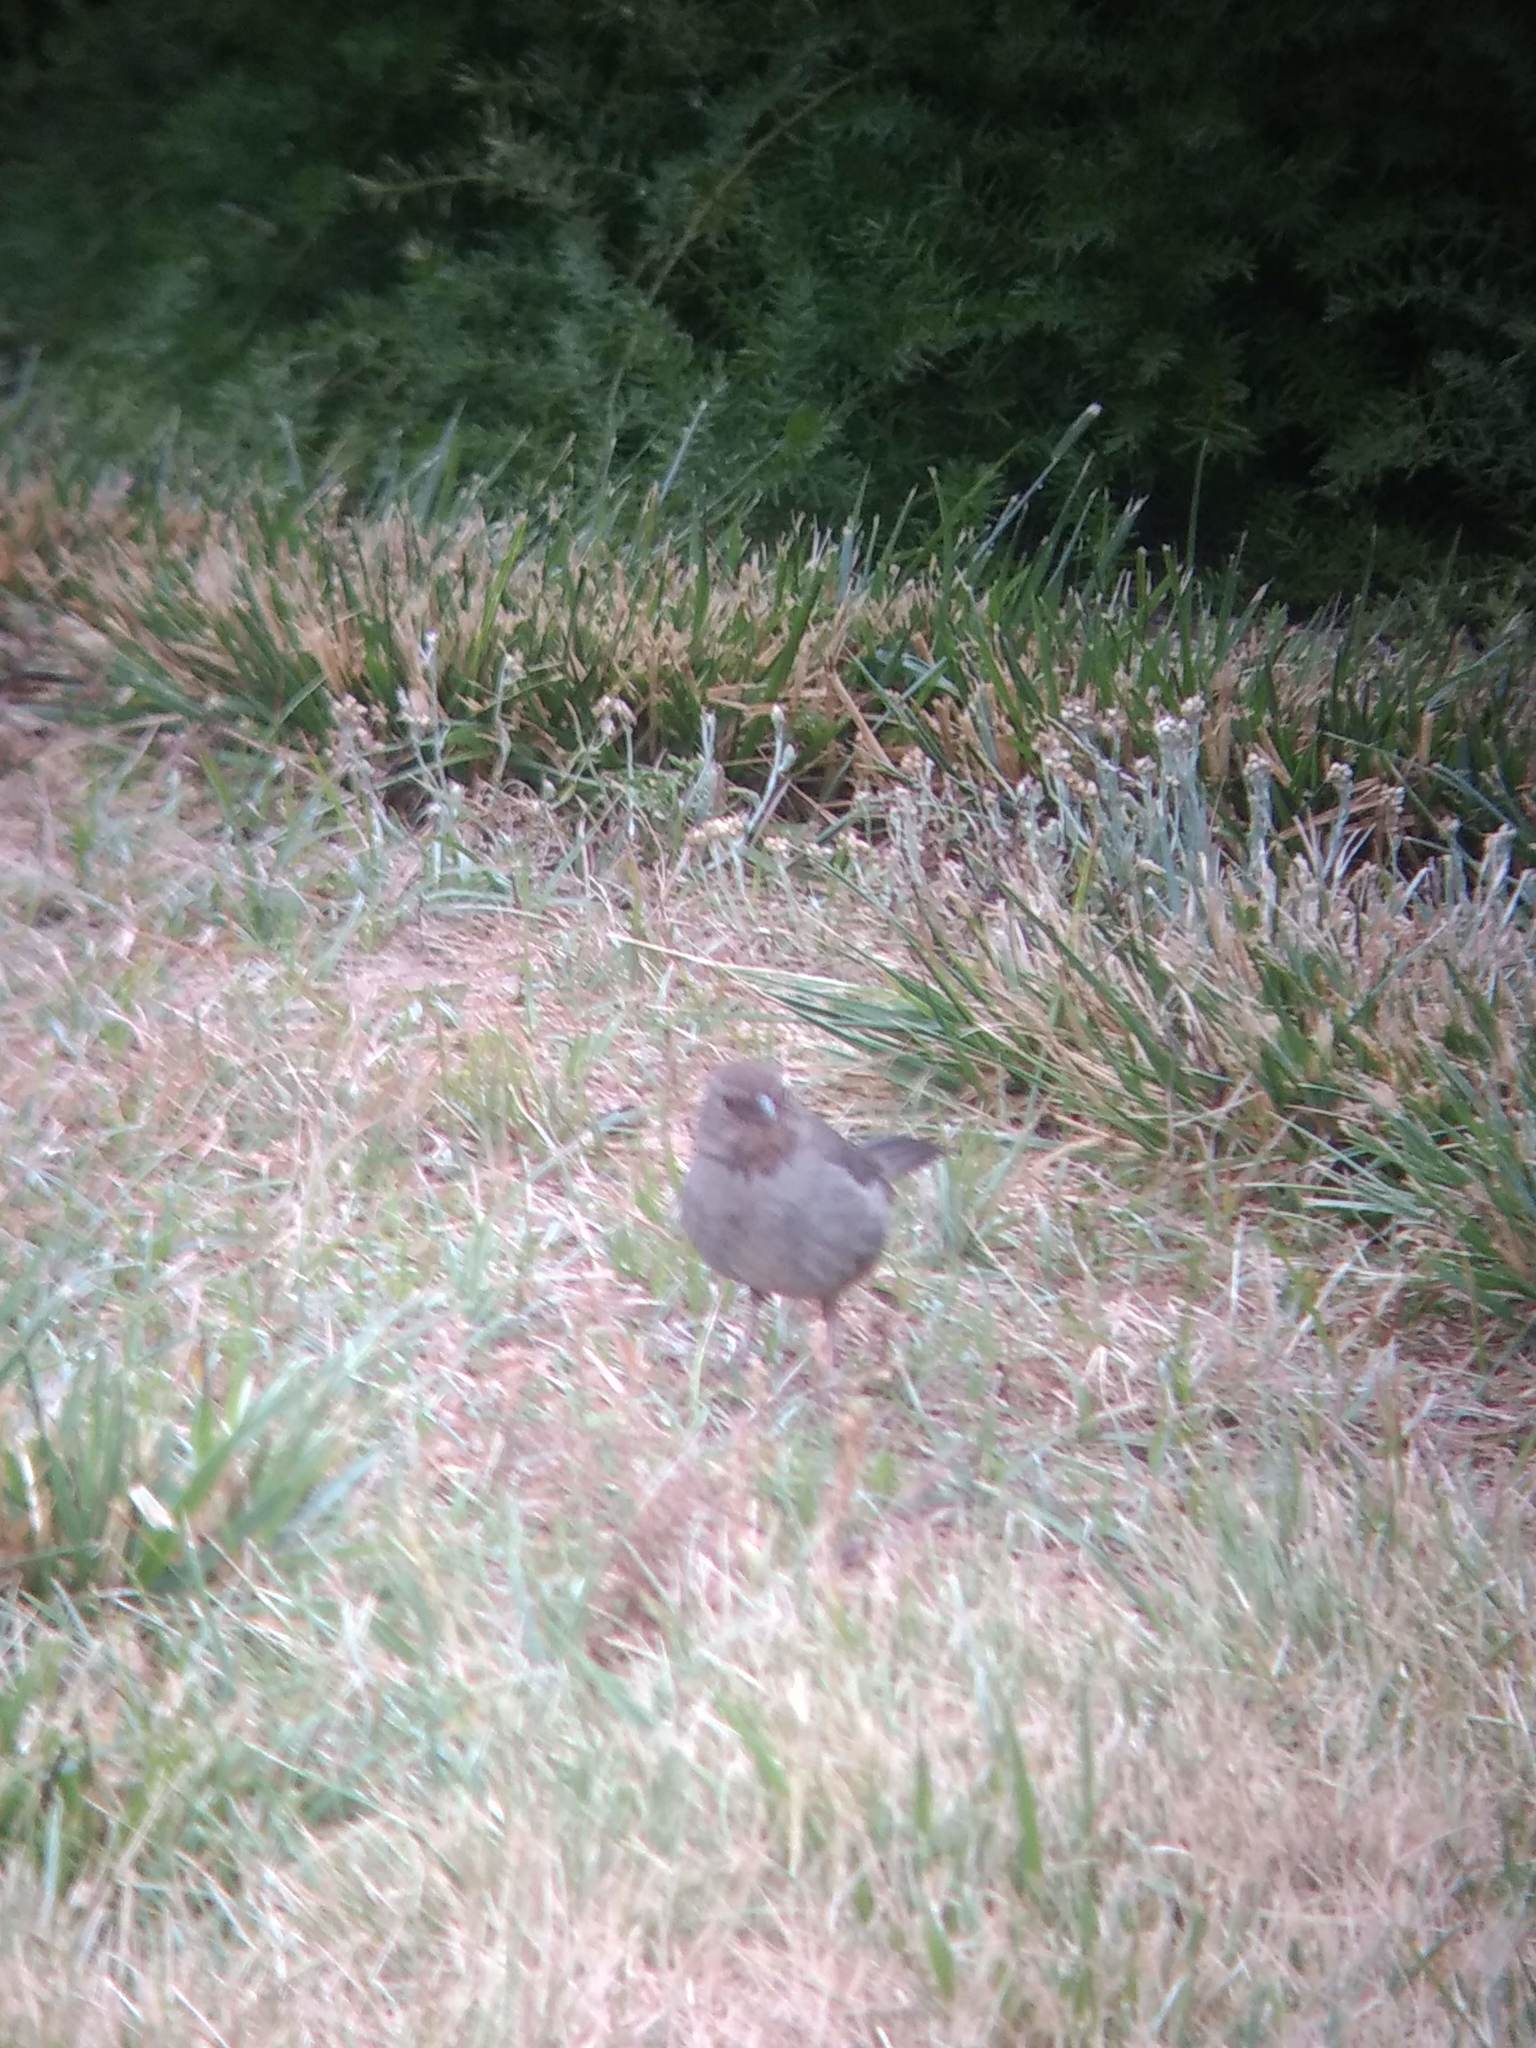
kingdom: Animalia
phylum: Chordata
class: Aves
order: Passeriformes
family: Passerellidae
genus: Melozone
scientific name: Melozone crissalis
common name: California towhee
